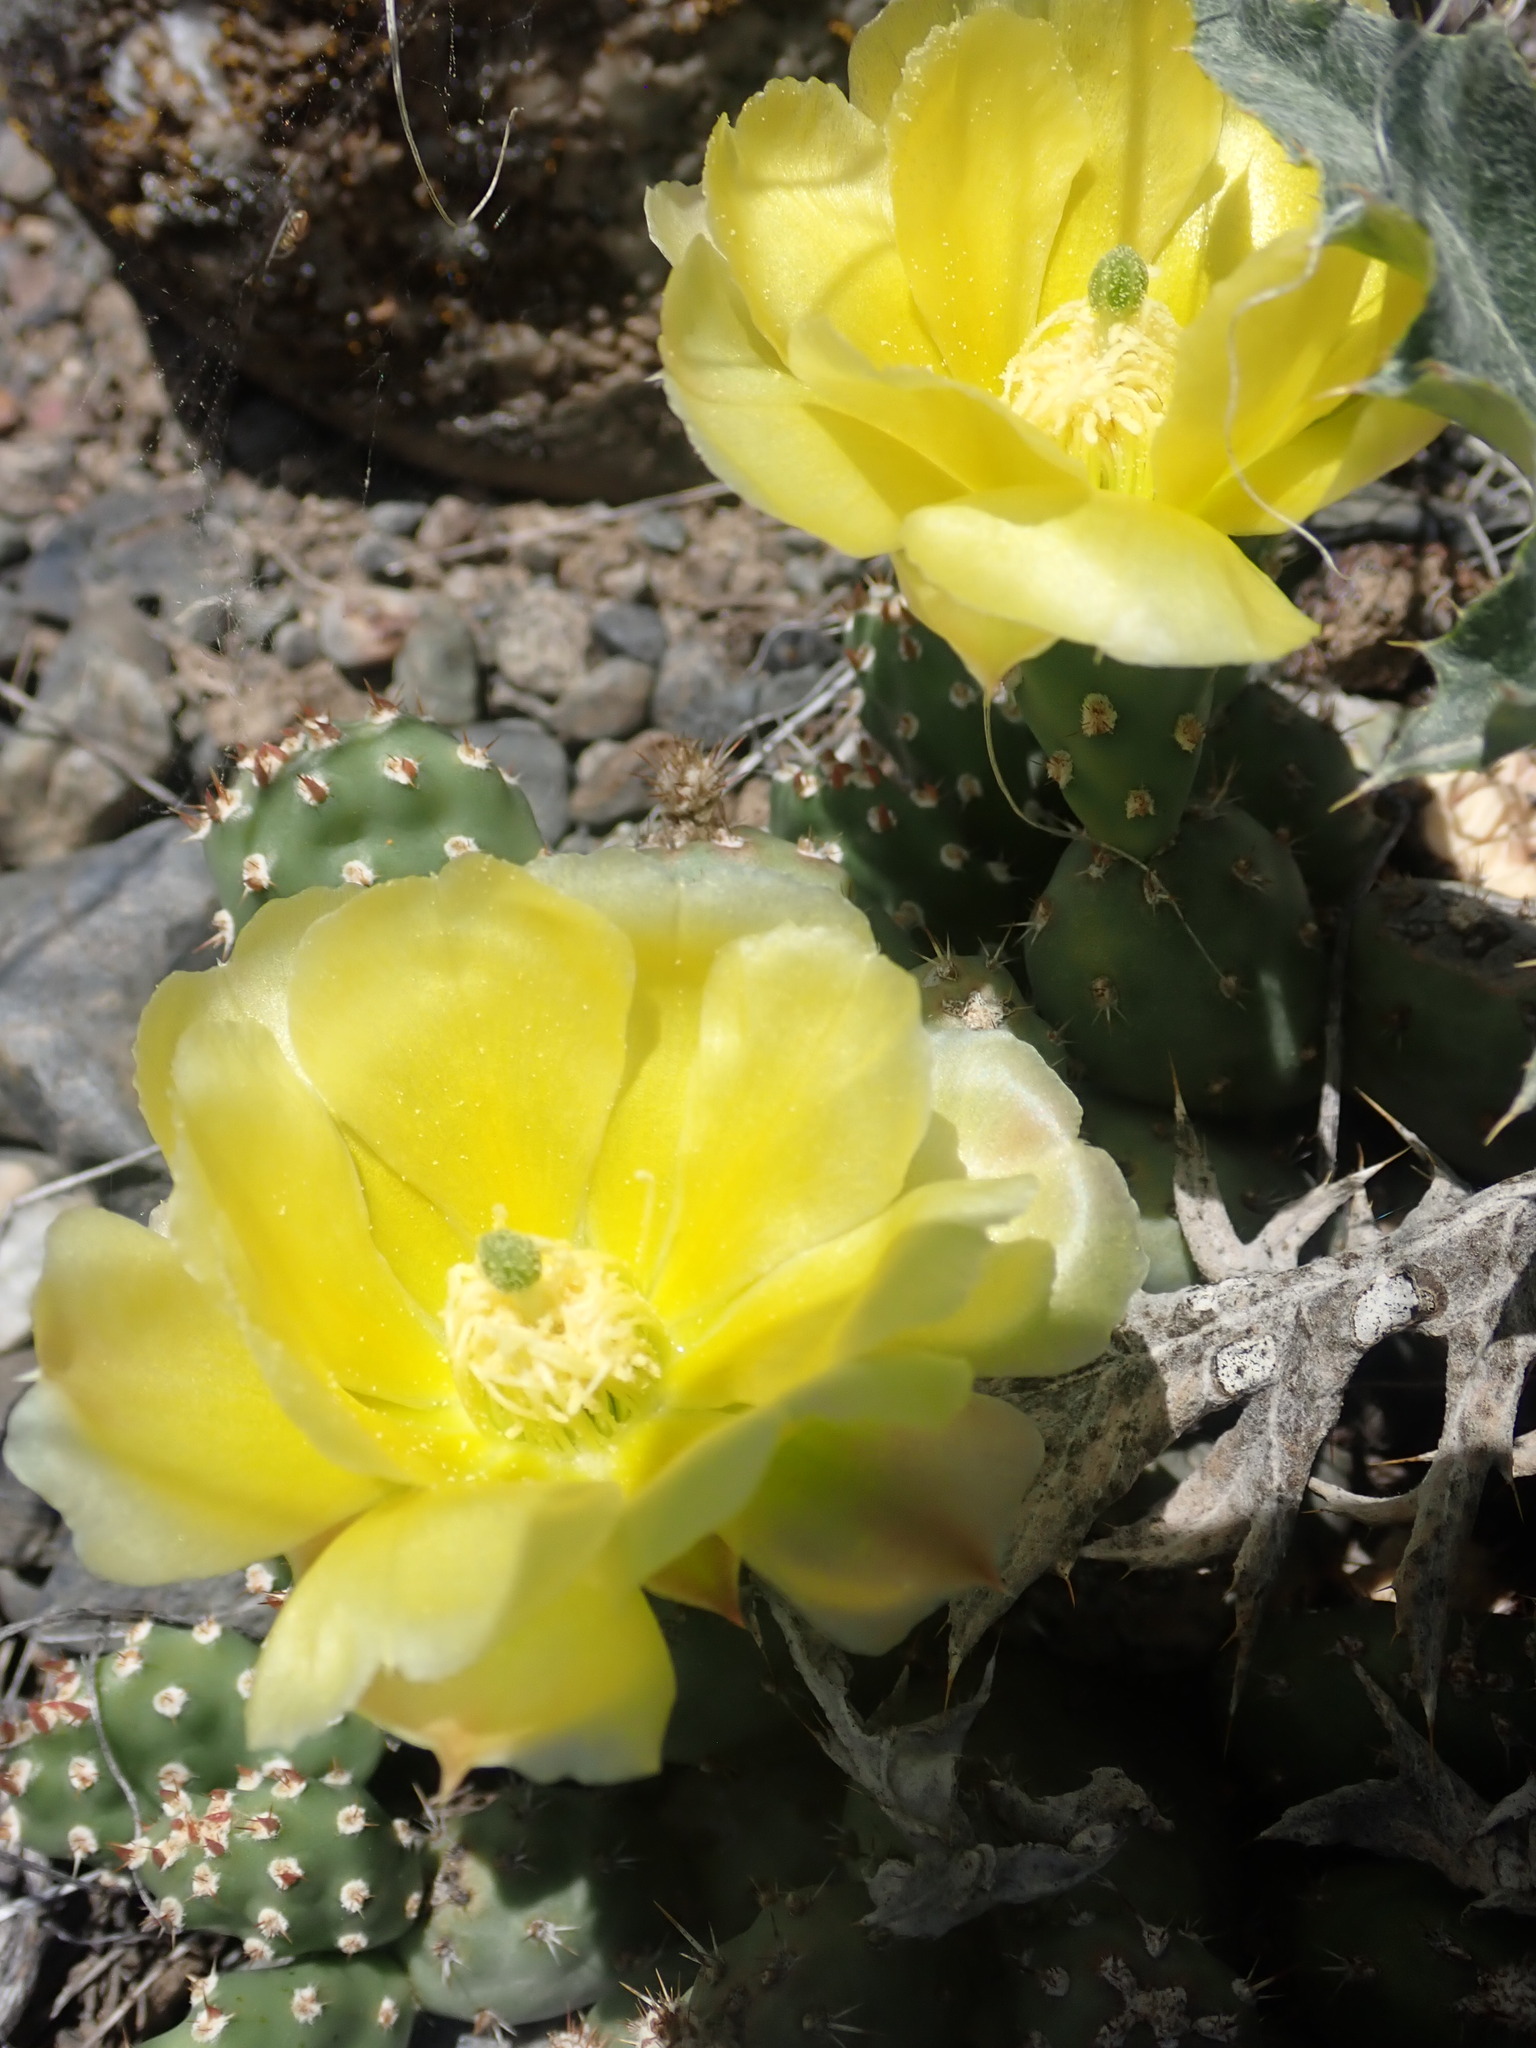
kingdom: Plantae
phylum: Tracheophyta
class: Magnoliopsida
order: Caryophyllales
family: Cactaceae
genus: Opuntia
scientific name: Opuntia fragilis
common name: Brittle cactus
